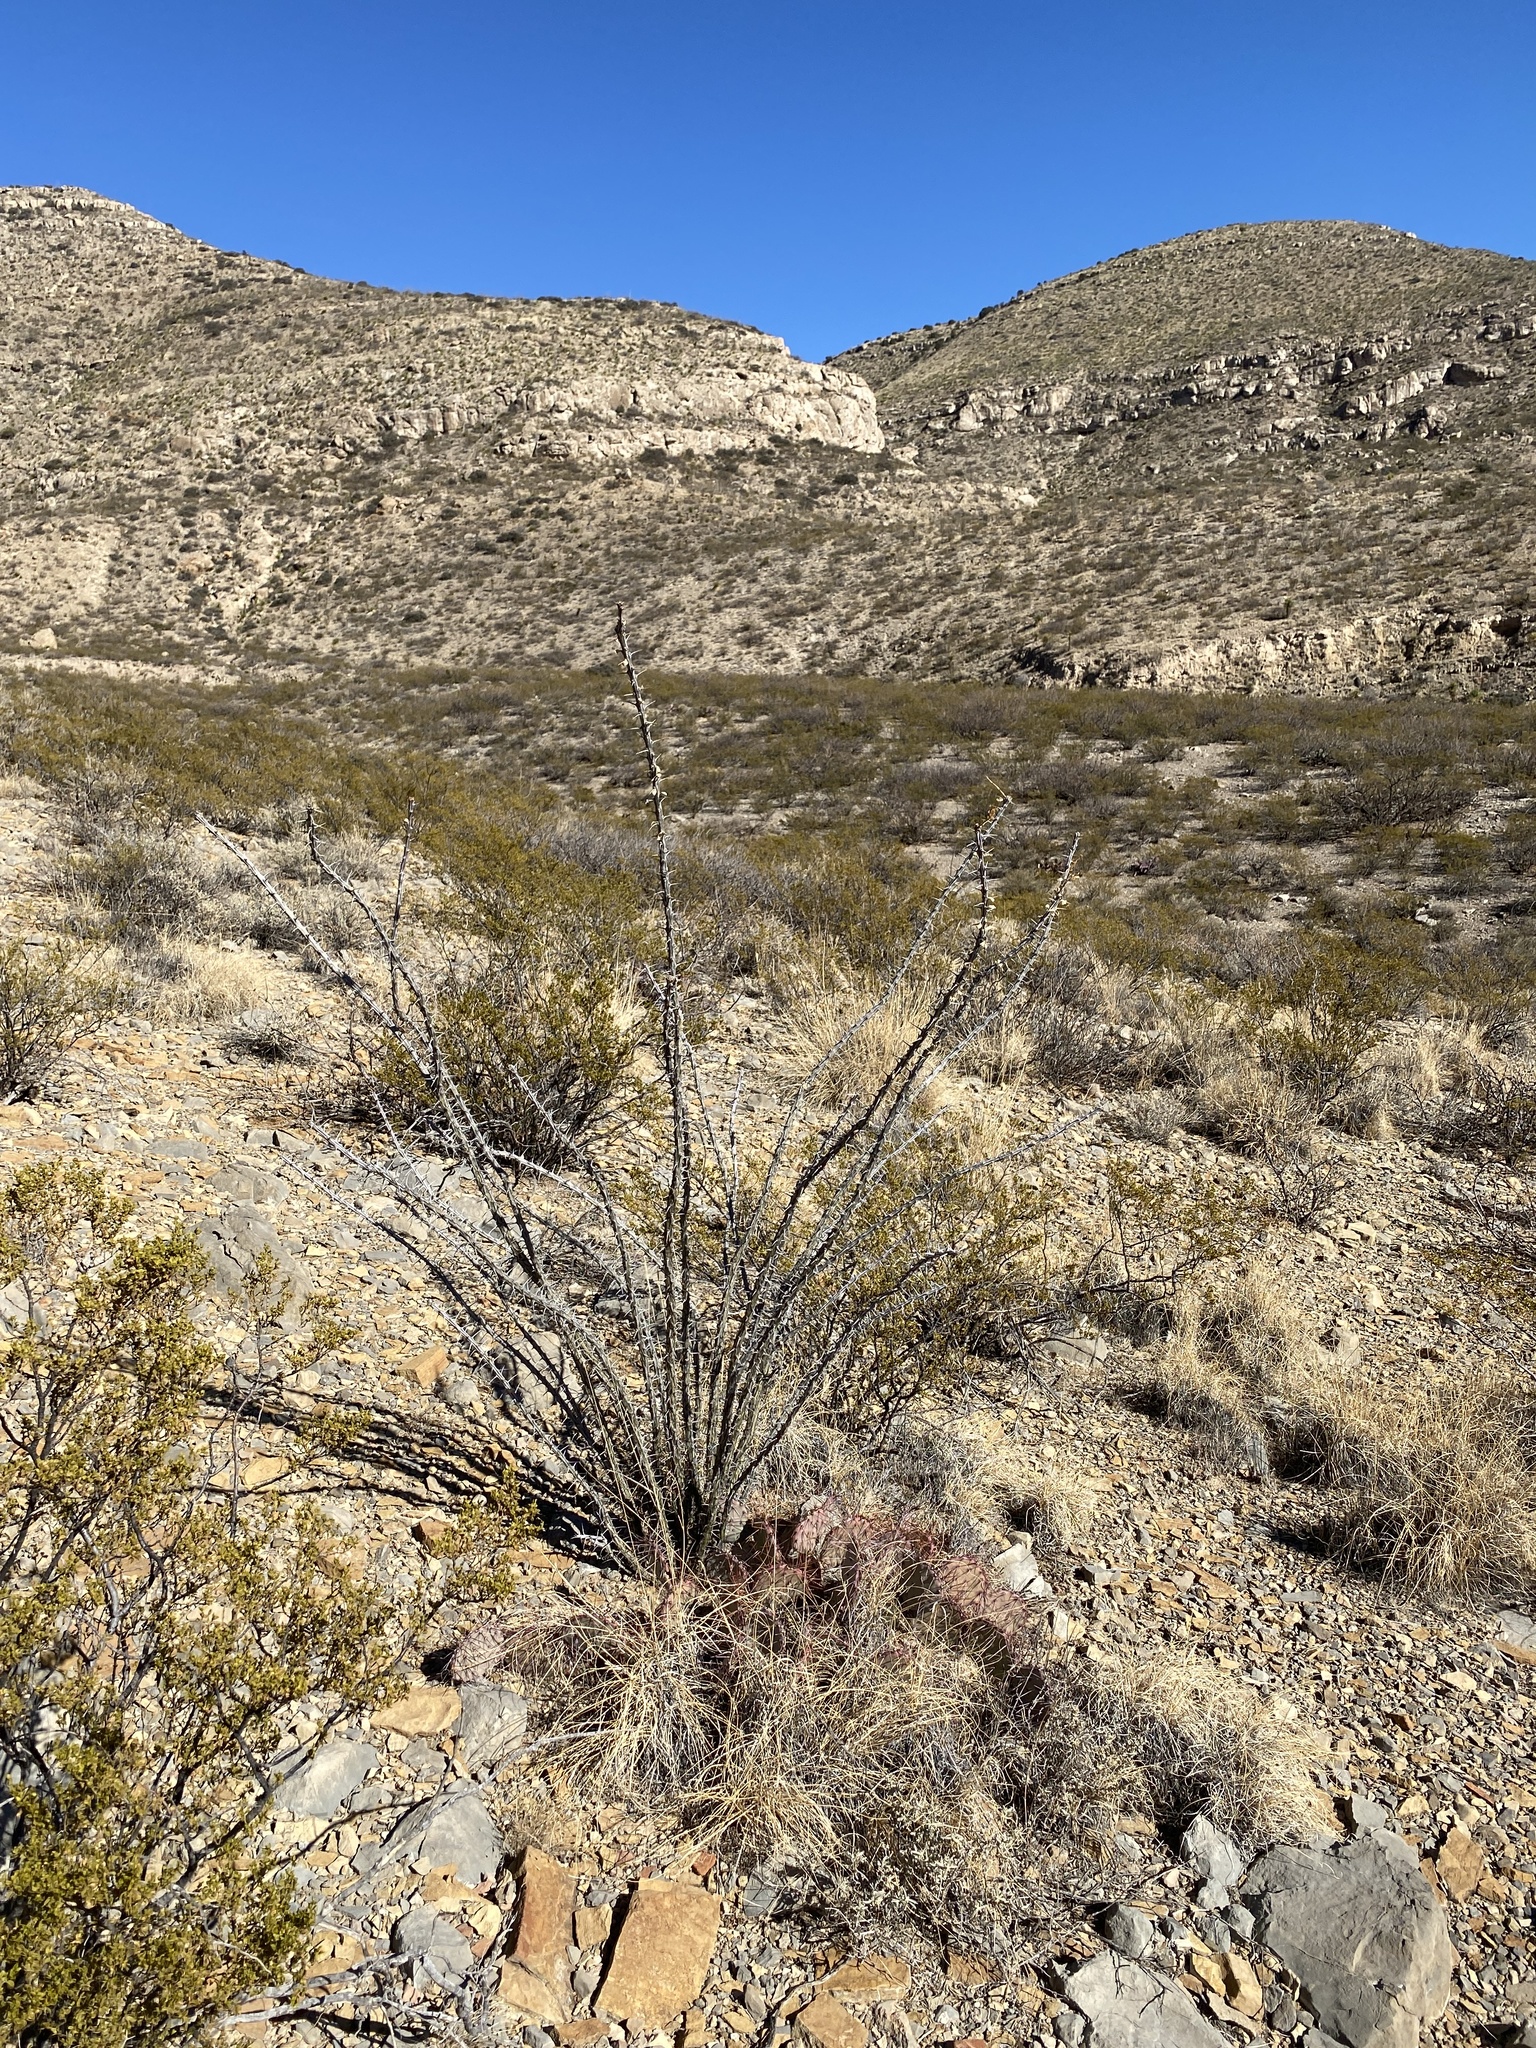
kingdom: Plantae
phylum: Tracheophyta
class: Magnoliopsida
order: Ericales
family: Fouquieriaceae
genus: Fouquieria
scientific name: Fouquieria splendens
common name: Vine-cactus
